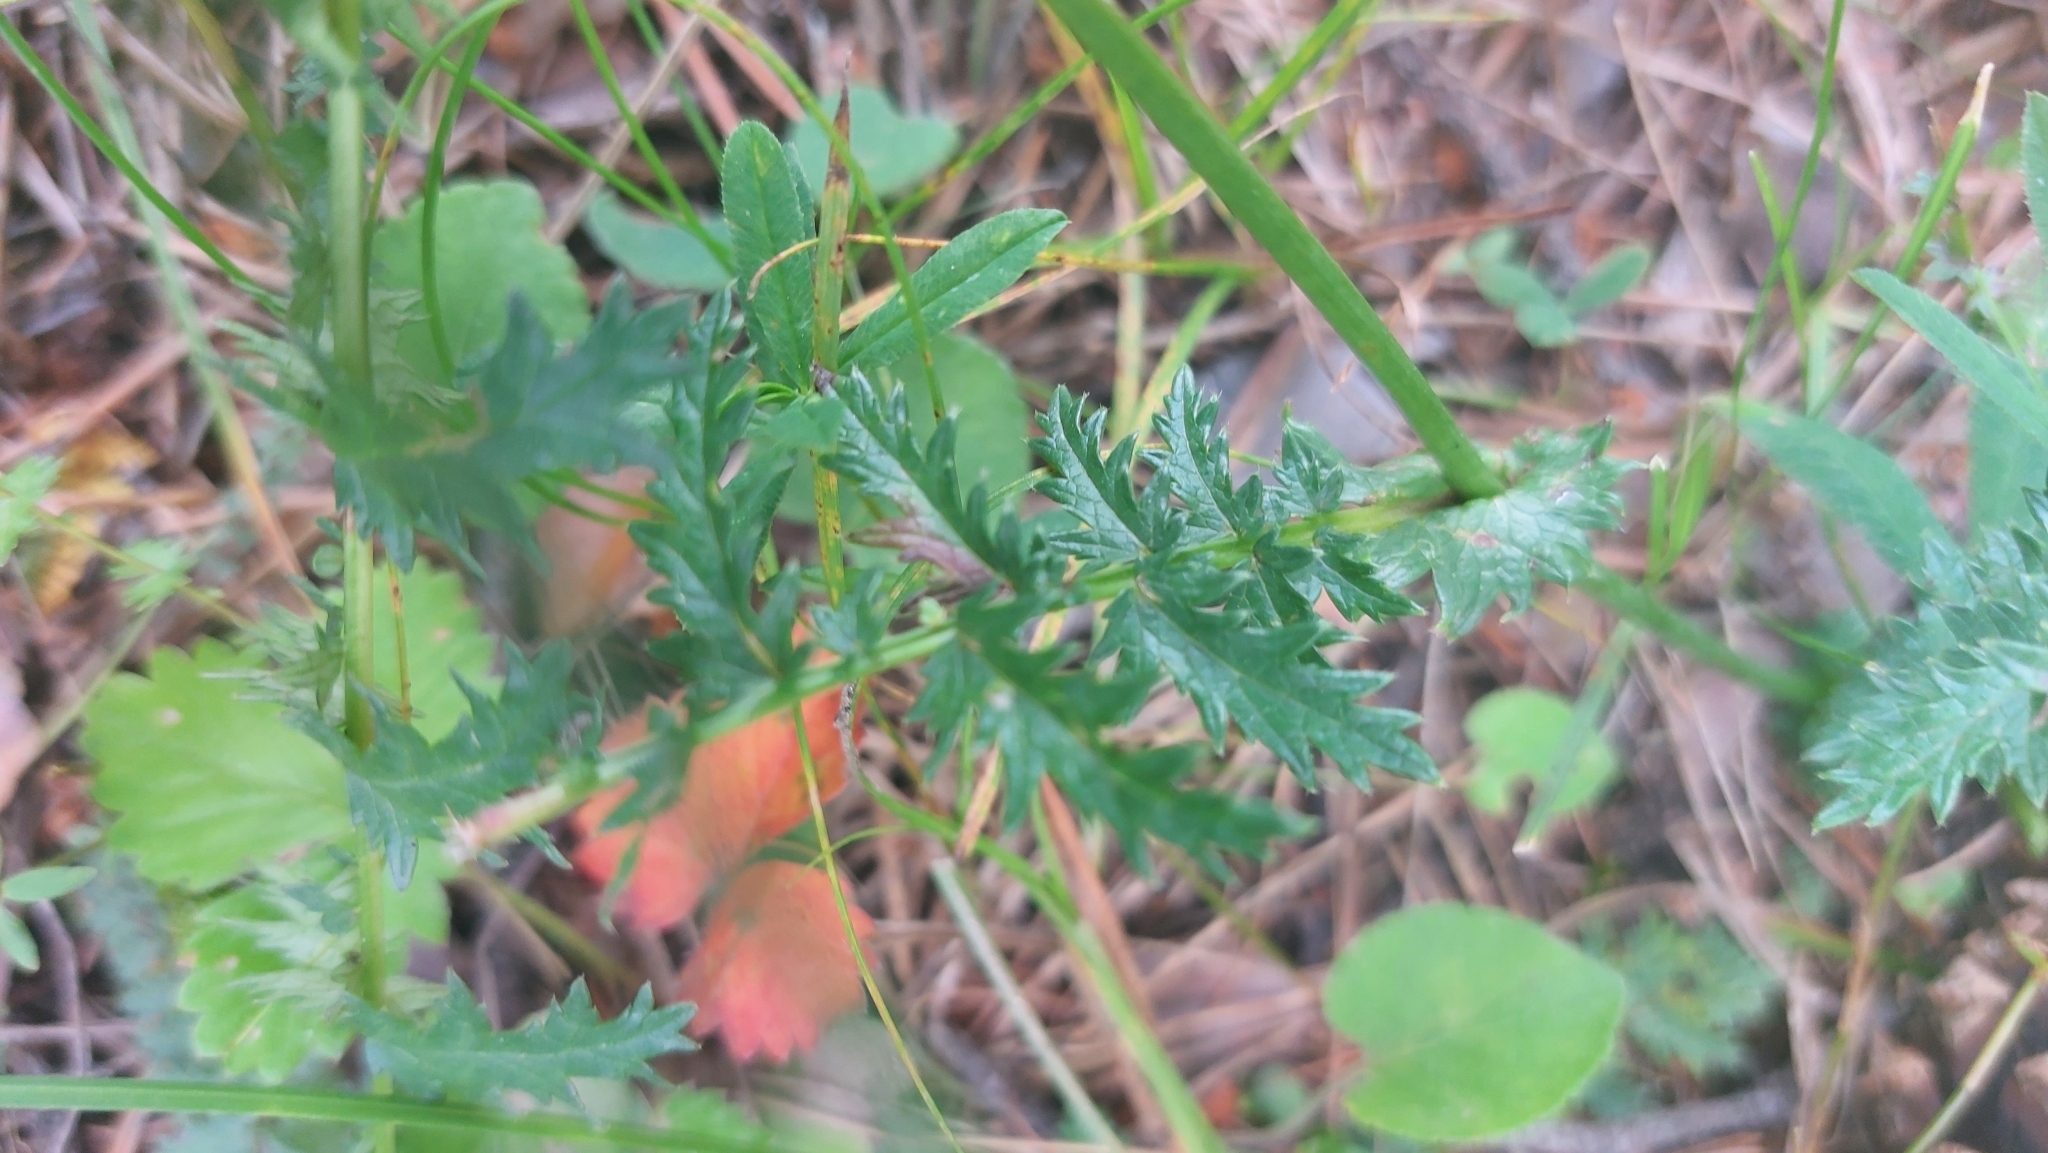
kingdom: Plantae
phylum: Tracheophyta
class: Magnoliopsida
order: Rosales
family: Rosaceae
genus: Filipendula
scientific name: Filipendula vulgaris
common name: Dropwort
